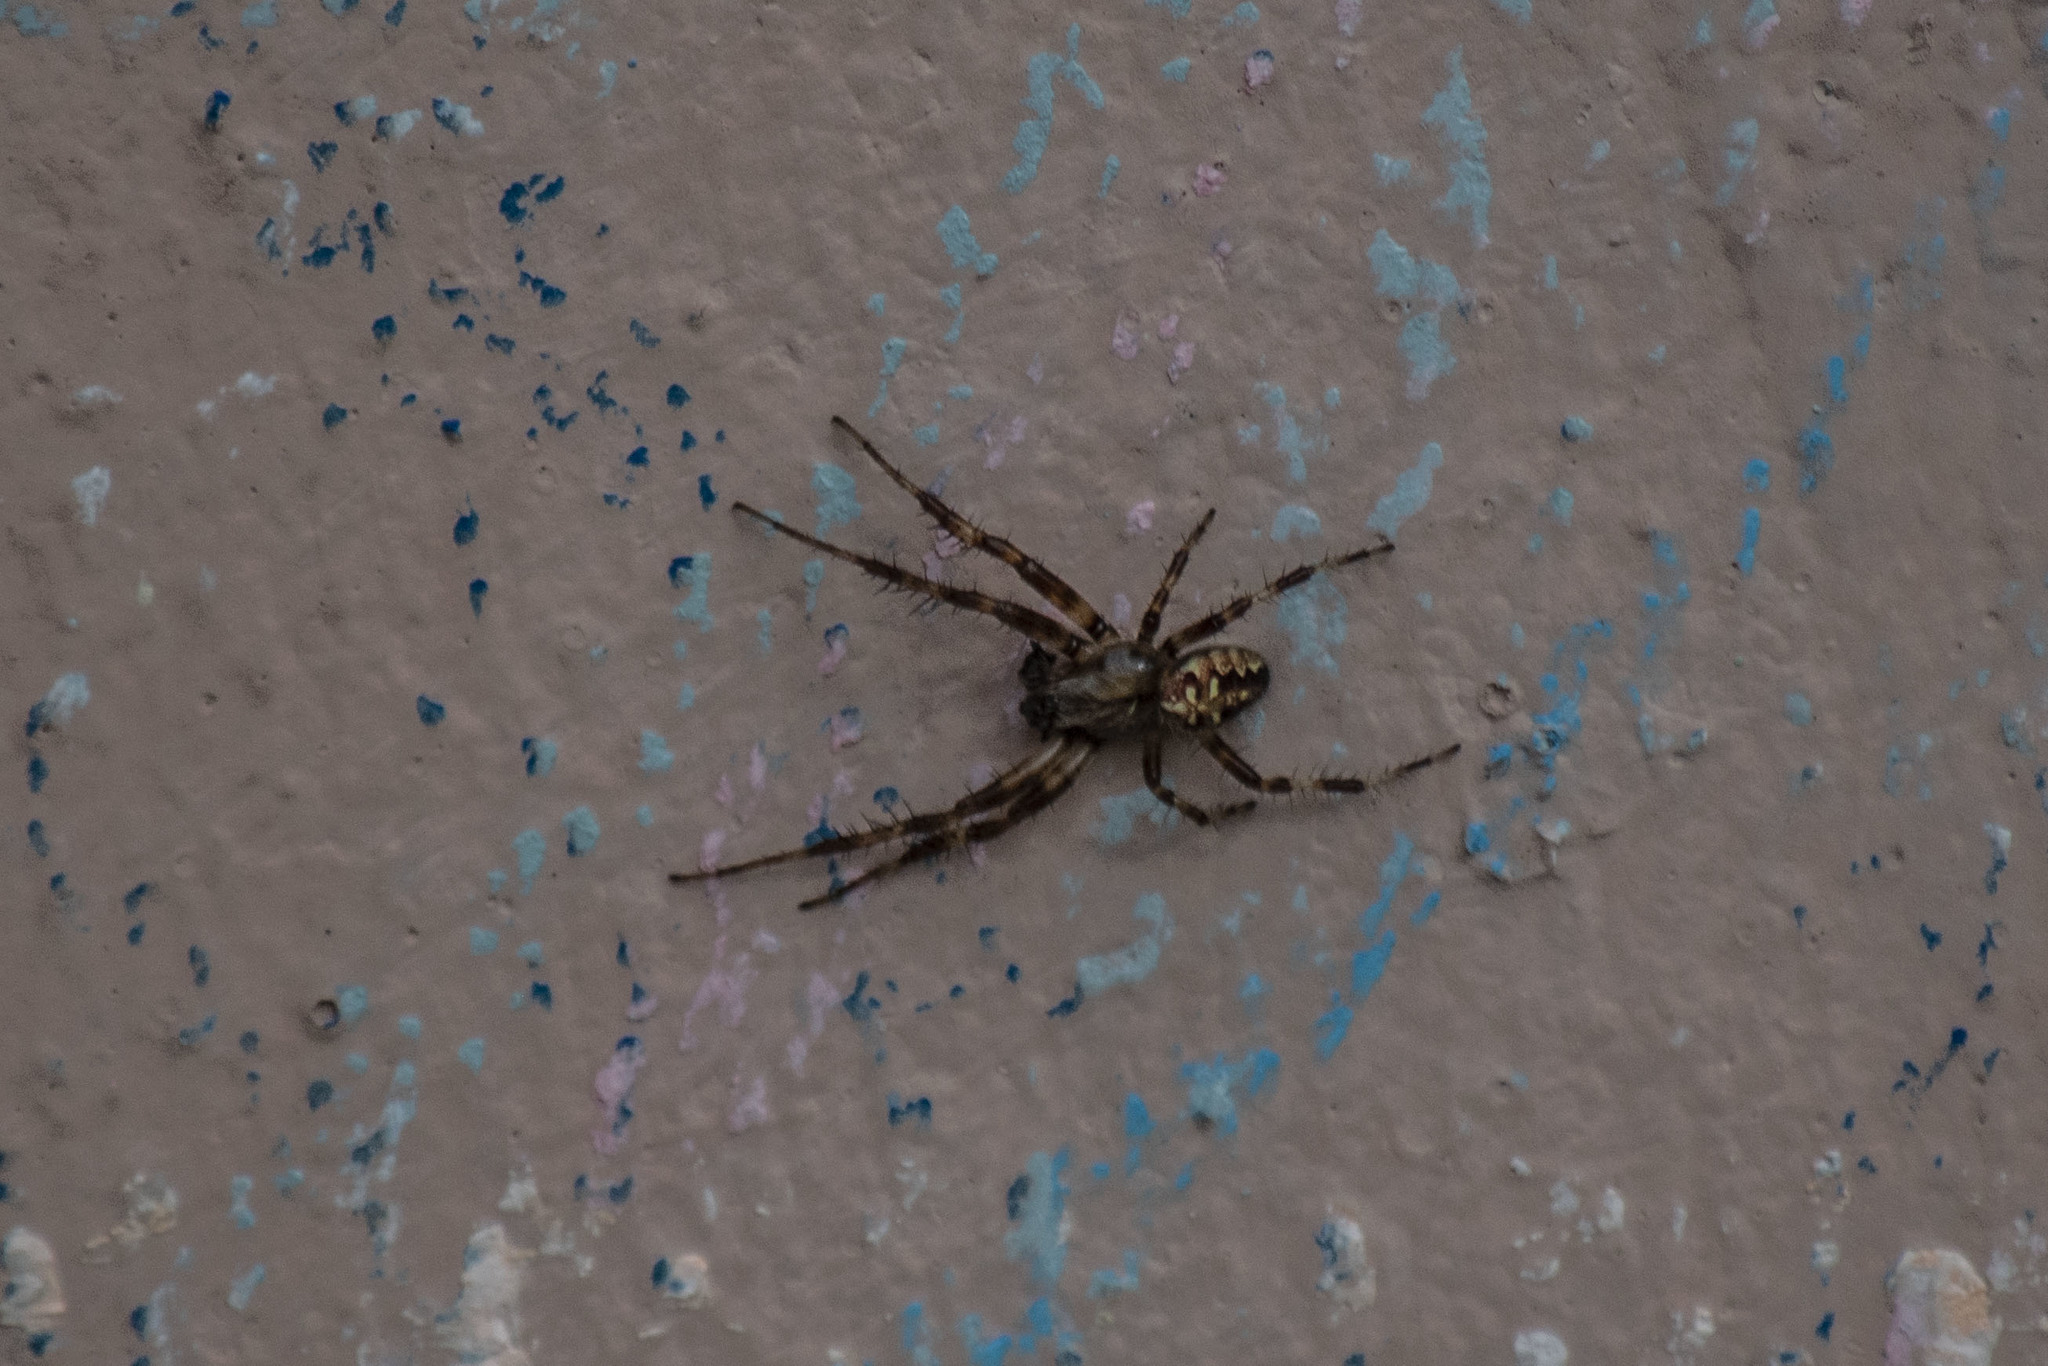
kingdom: Animalia
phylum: Arthropoda
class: Arachnida
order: Araneae
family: Araneidae
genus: Araneus
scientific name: Araneus diadematus
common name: Cross orbweaver
